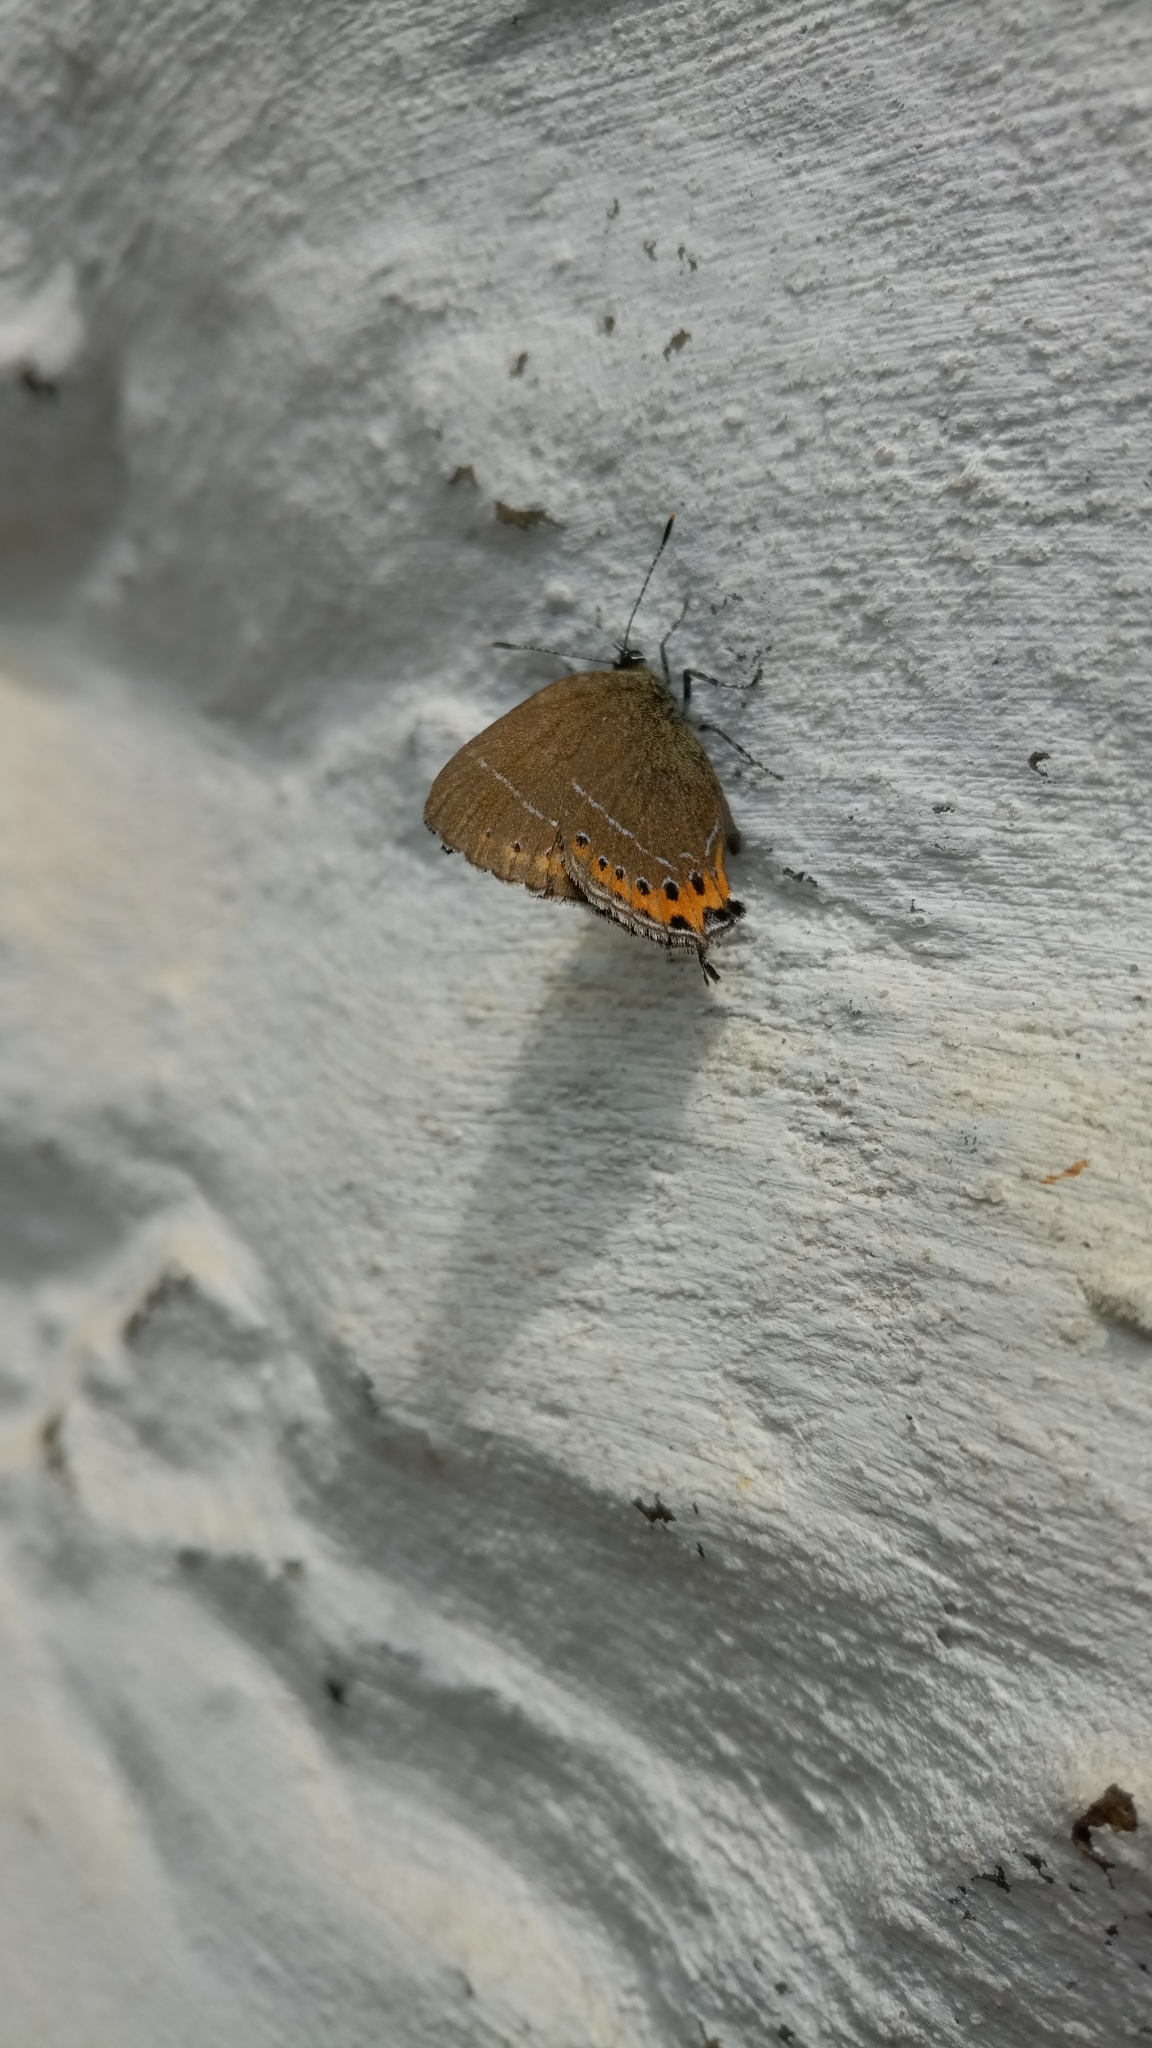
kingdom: Animalia
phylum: Arthropoda
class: Insecta
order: Lepidoptera
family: Lycaenidae
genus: Fixsenia
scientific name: Fixsenia pruni
